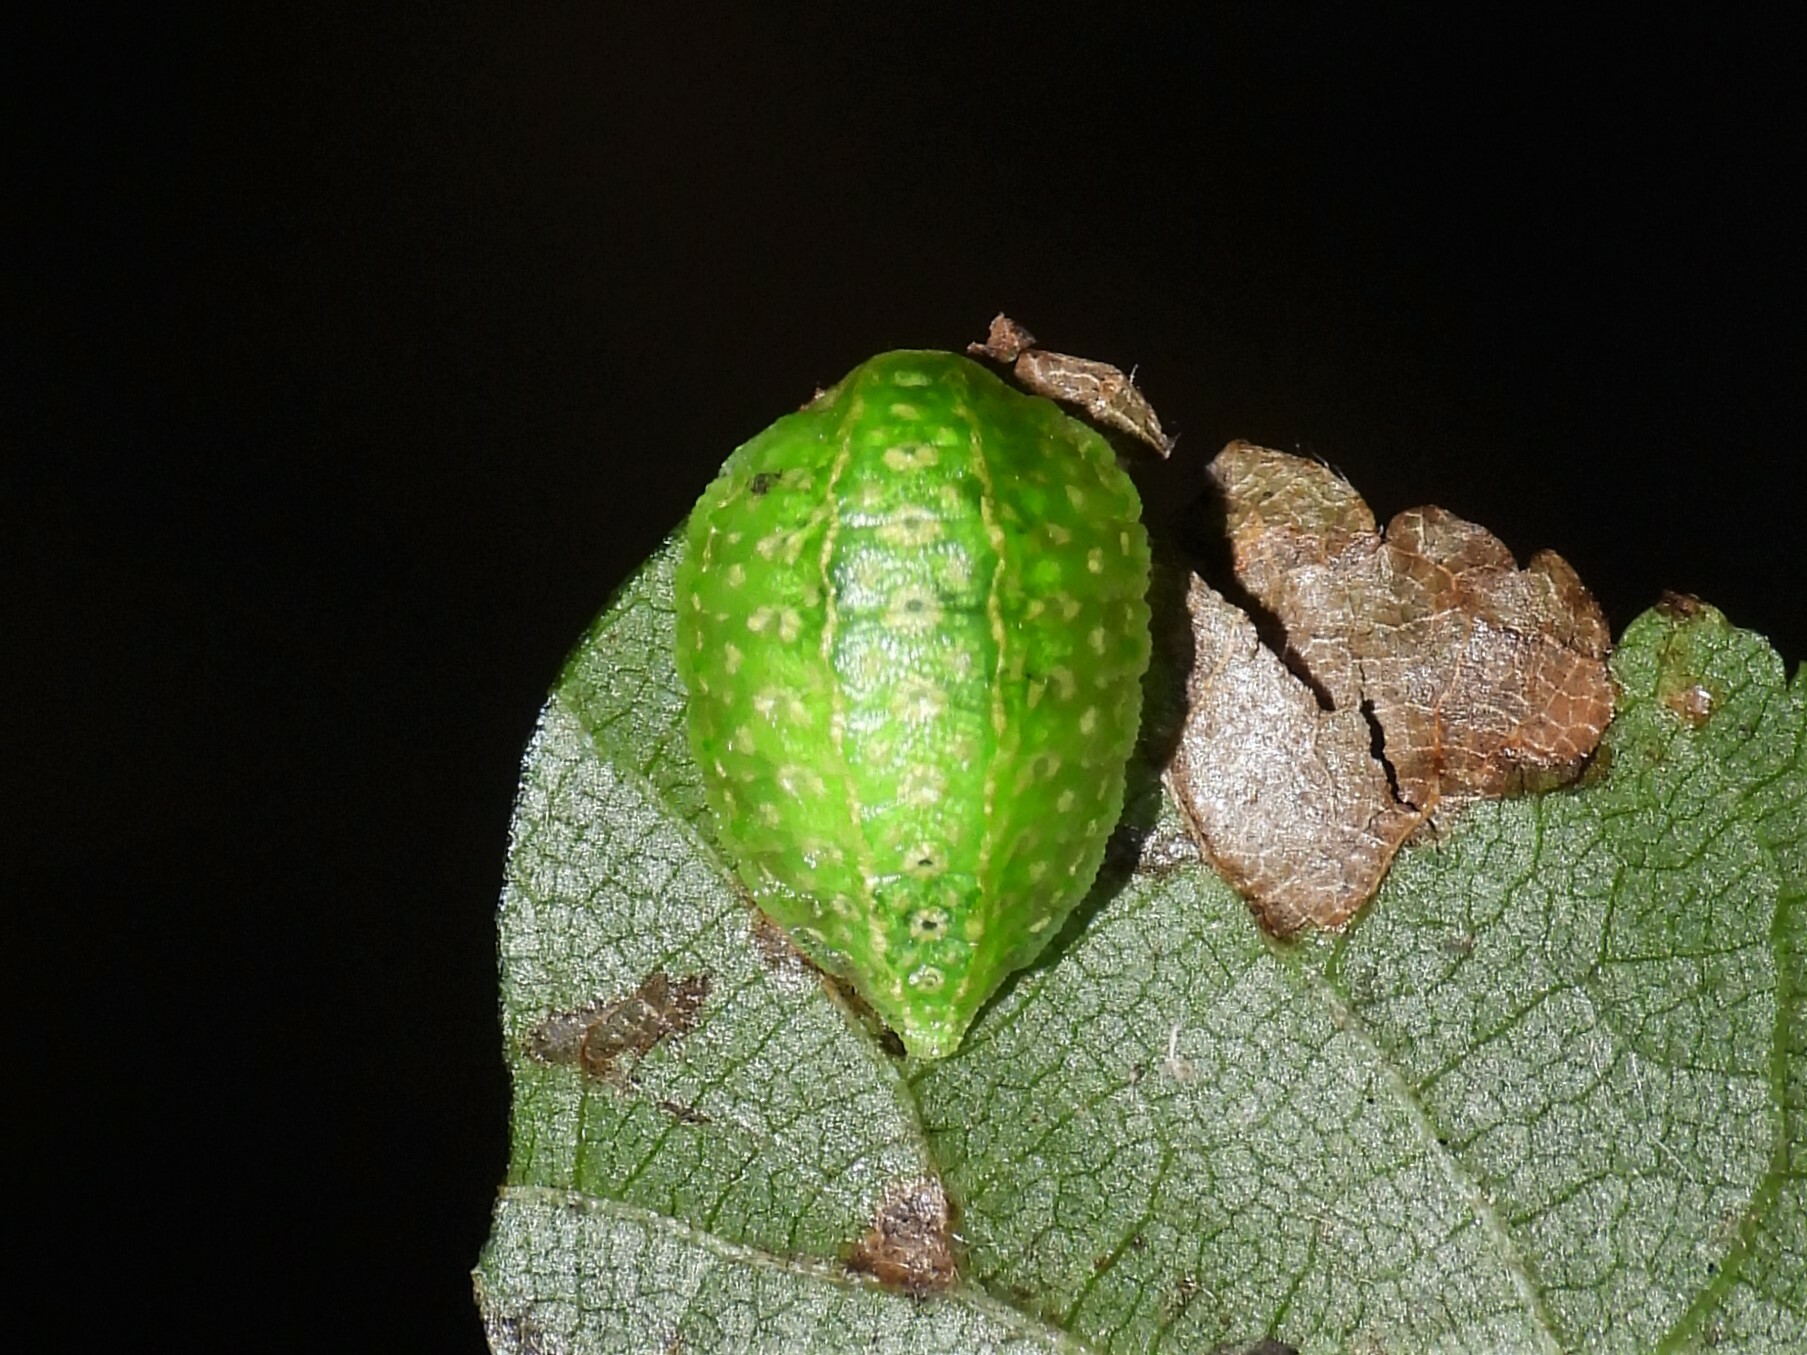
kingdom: Animalia
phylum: Arthropoda
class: Insecta
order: Lepidoptera
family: Limacodidae
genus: Lithacodes
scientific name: Lithacodes fasciola
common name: Yellow-shouldered slug moth
